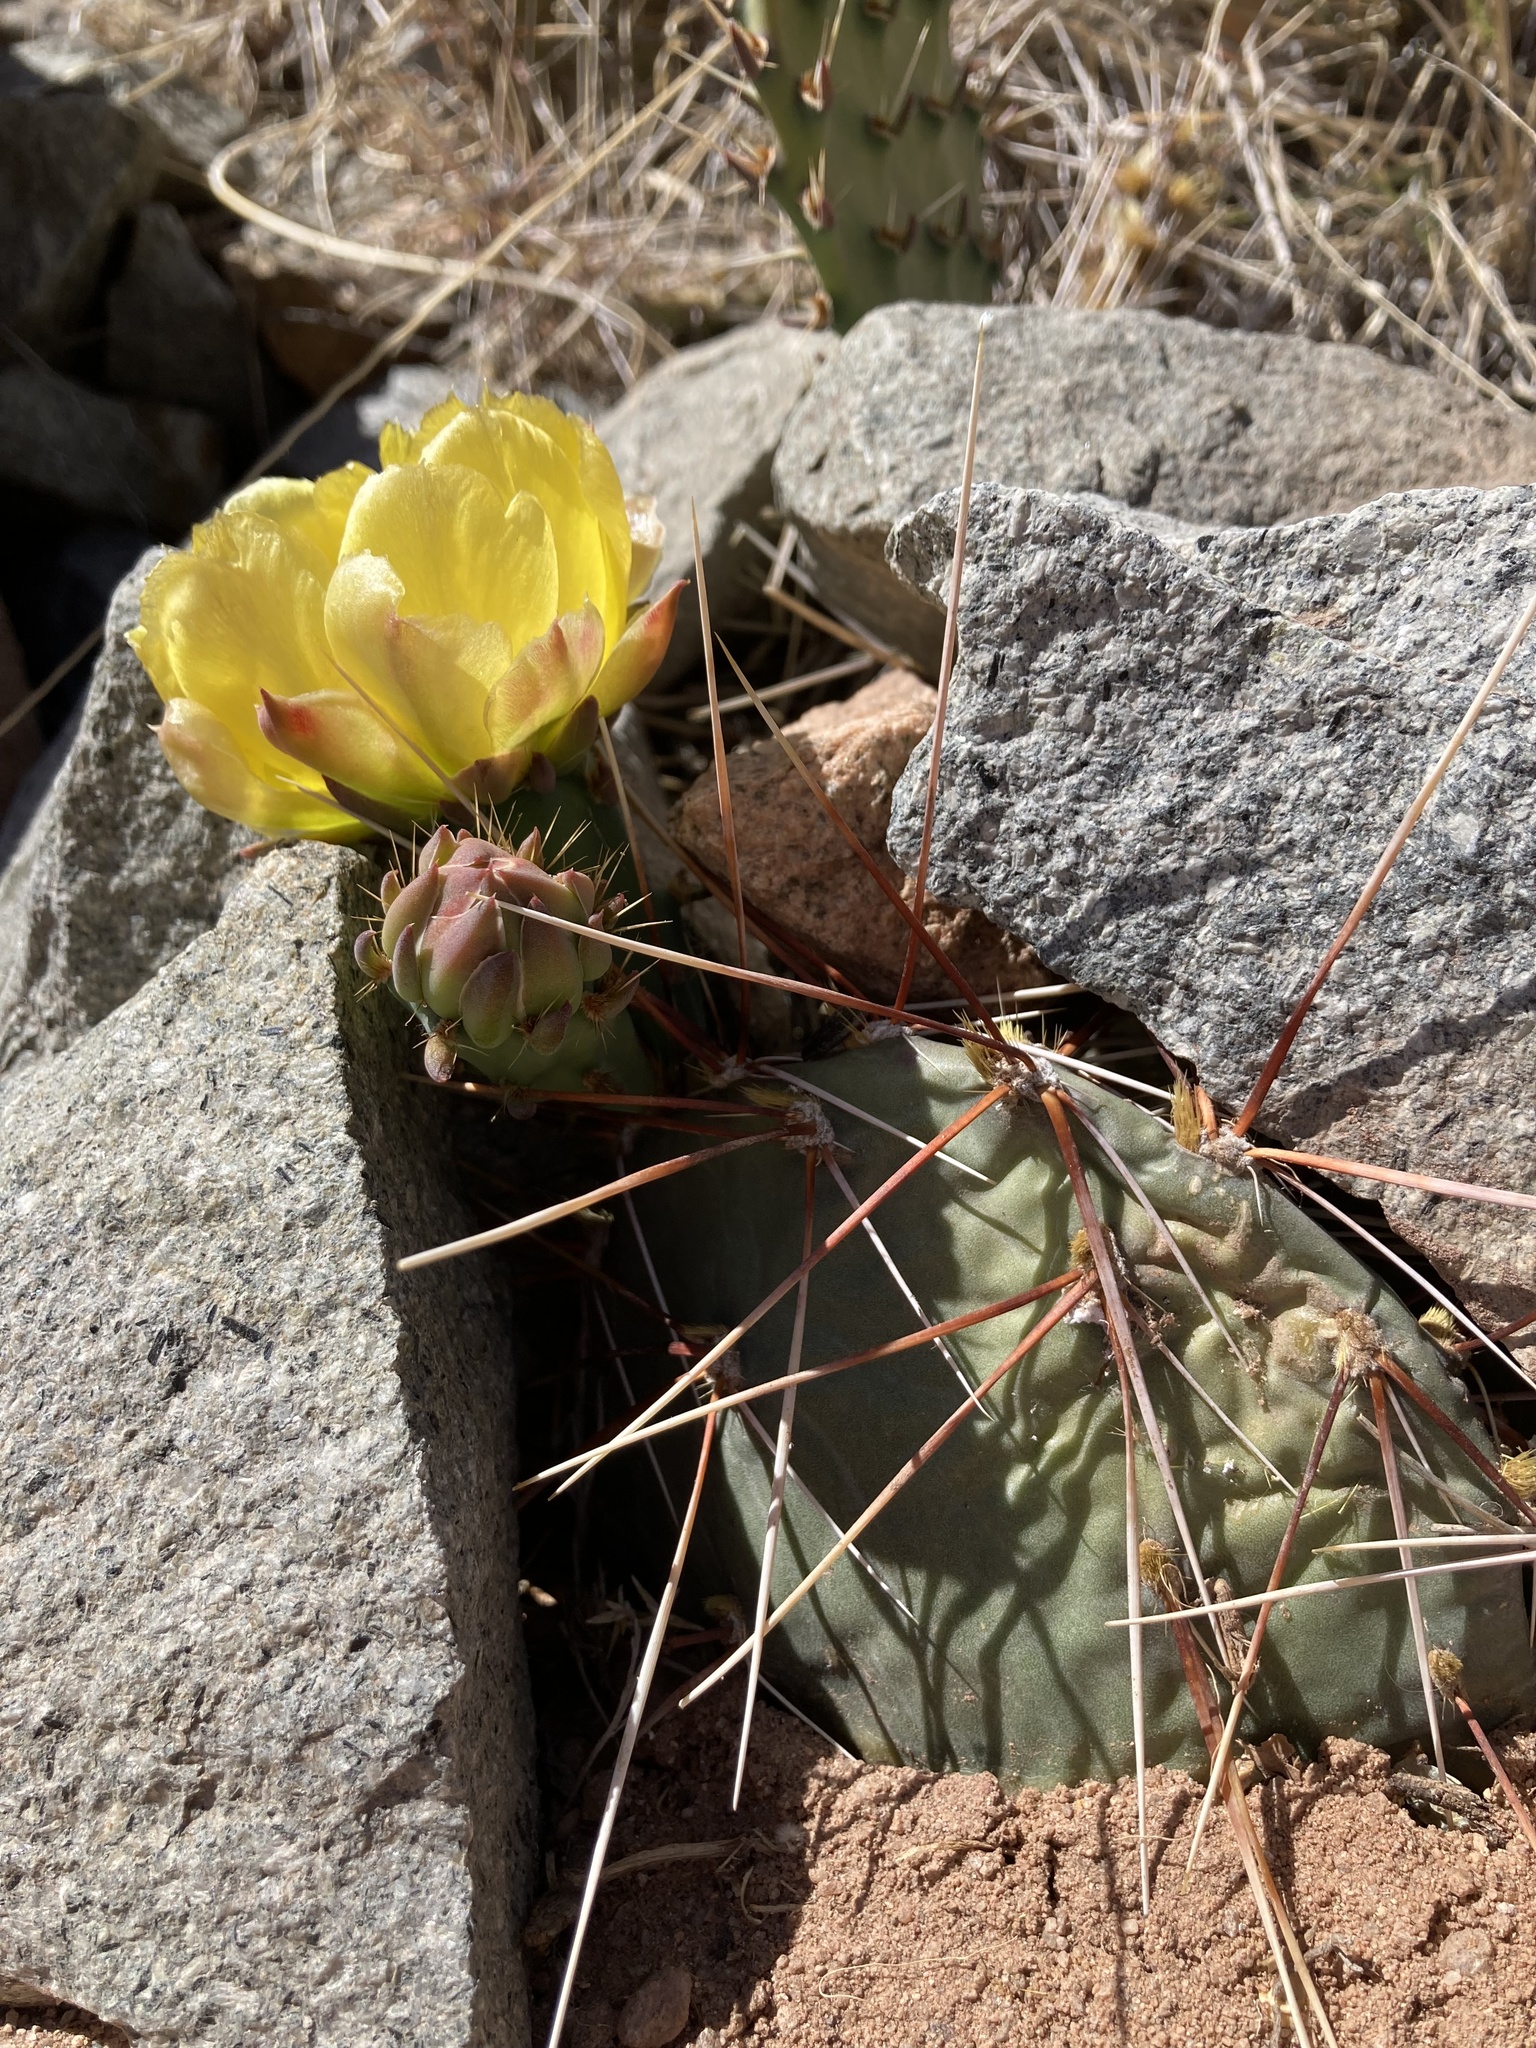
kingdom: Plantae
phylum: Tracheophyta
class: Magnoliopsida
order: Caryophyllales
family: Cactaceae
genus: Opuntia
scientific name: Opuntia phaeacantha
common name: New mexico prickly-pear
